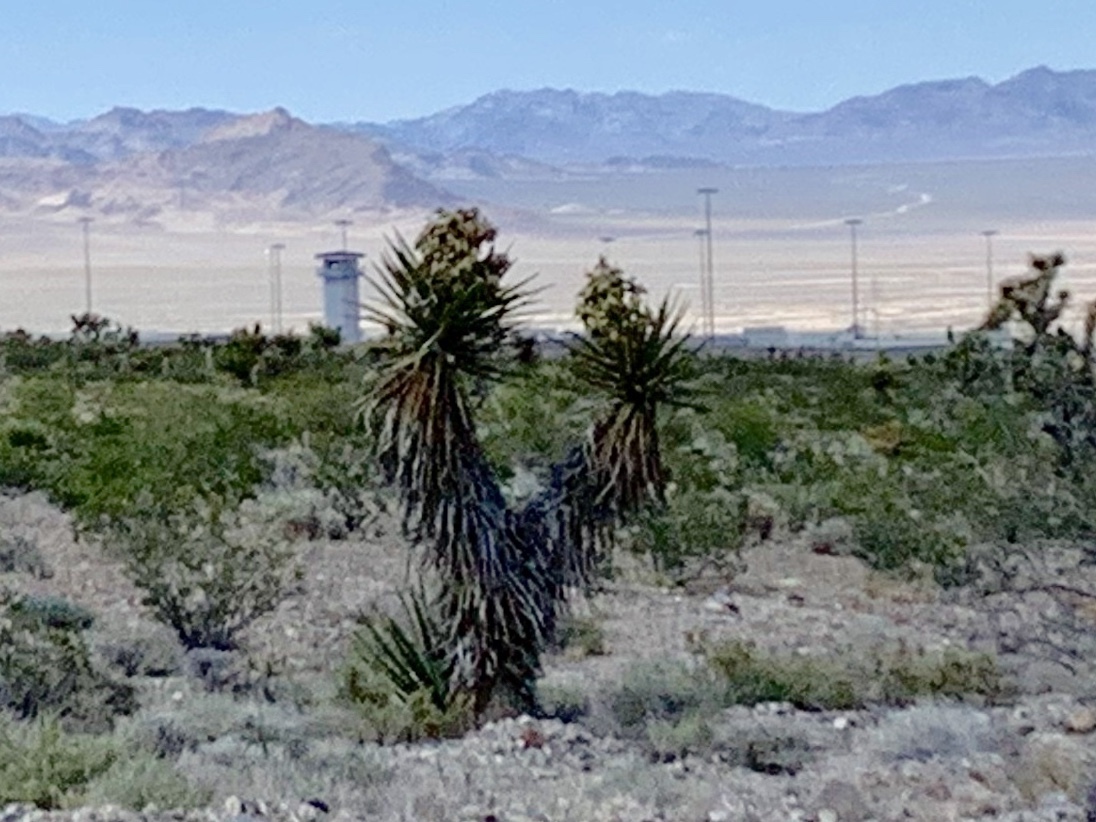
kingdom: Plantae
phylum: Tracheophyta
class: Liliopsida
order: Asparagales
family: Asparagaceae
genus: Yucca
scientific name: Yucca schidigera
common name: Mojave yucca
